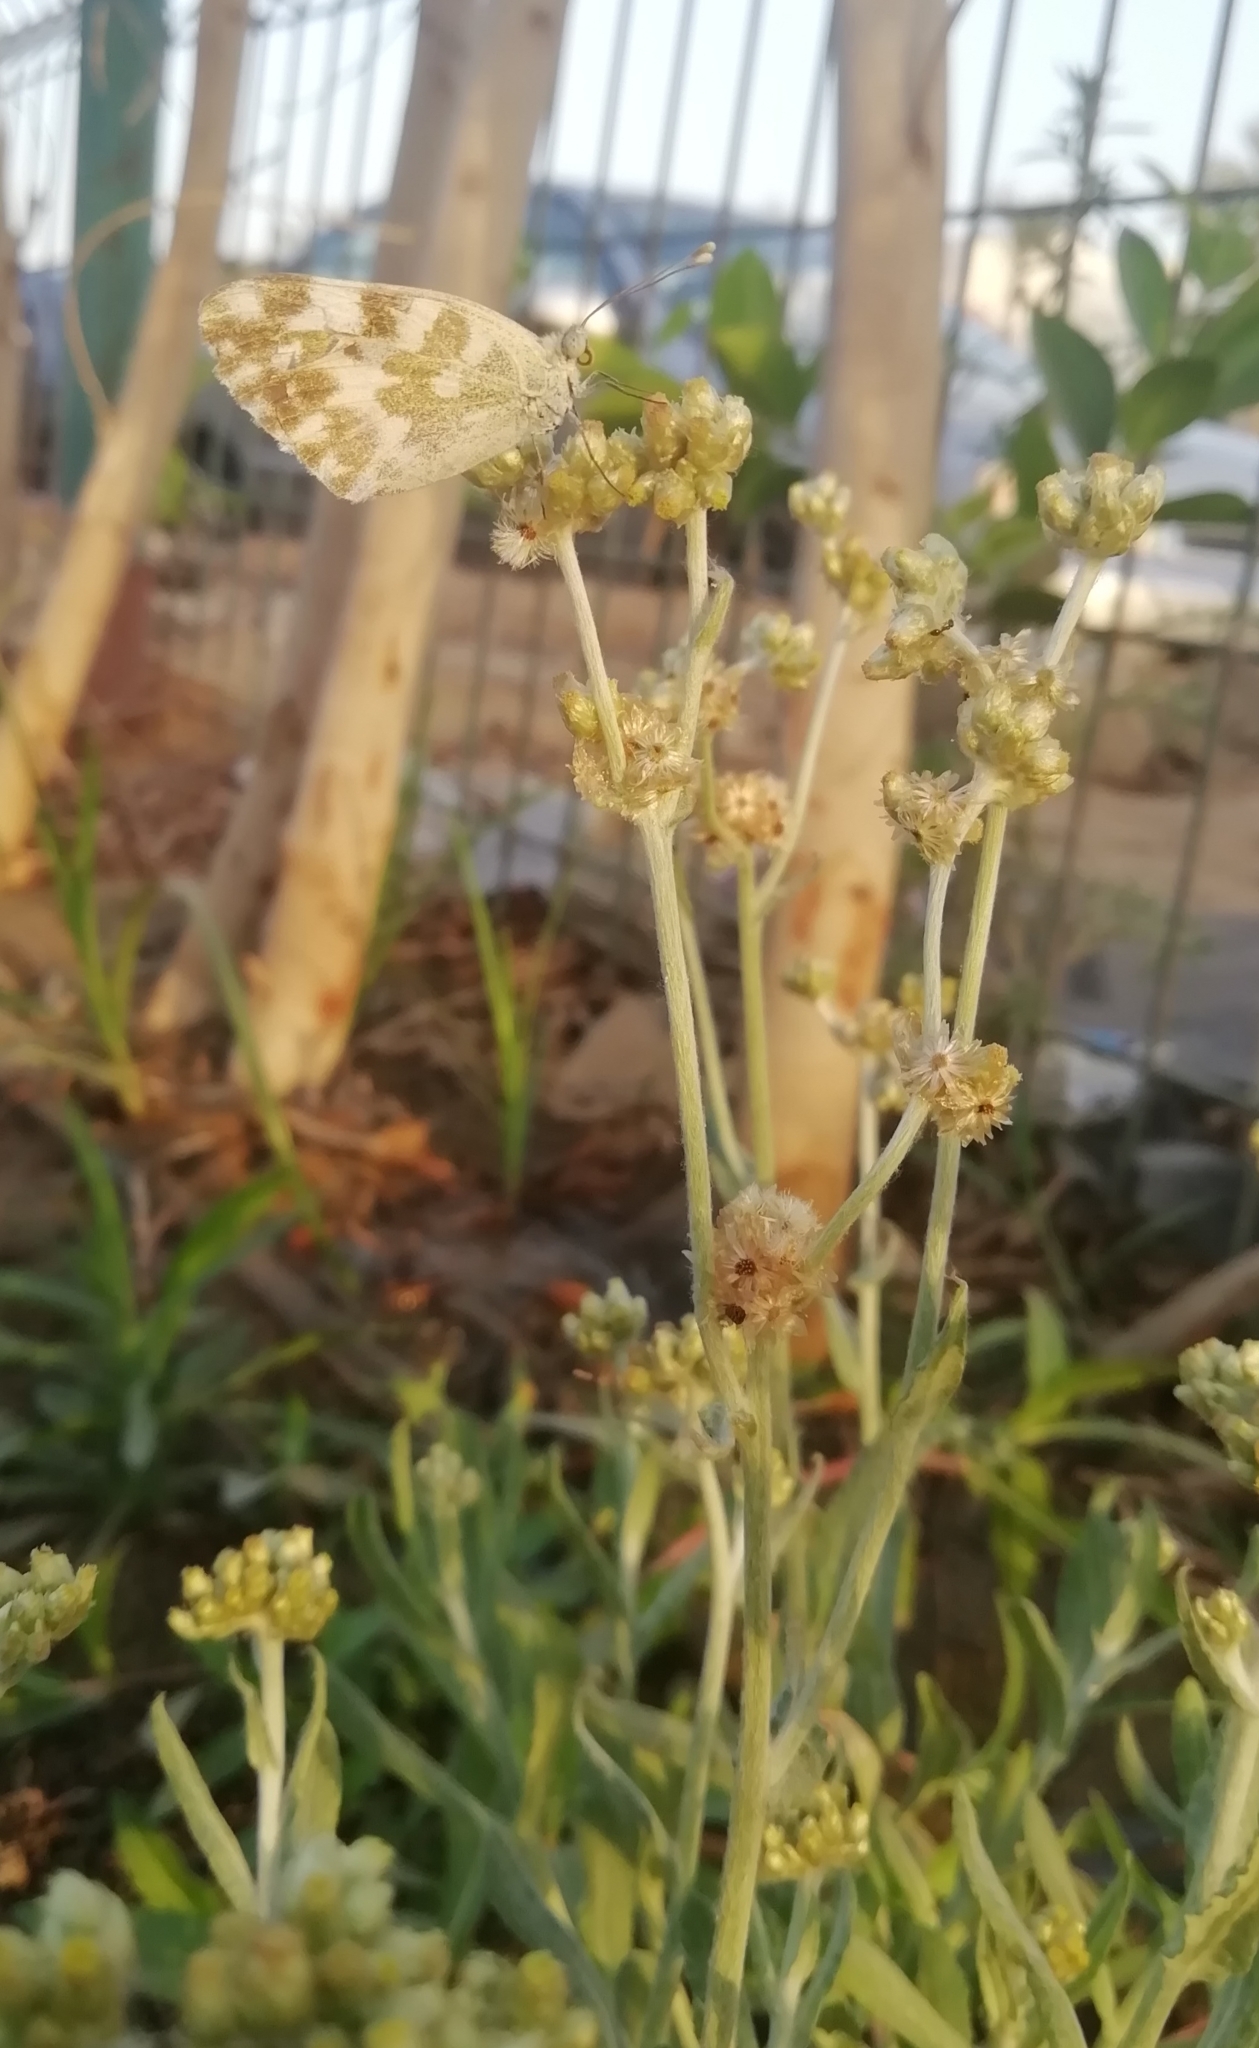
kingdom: Animalia
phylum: Arthropoda
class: Insecta
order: Lepidoptera
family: Pieridae
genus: Pontia
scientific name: Pontia daplidice
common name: Bath white
